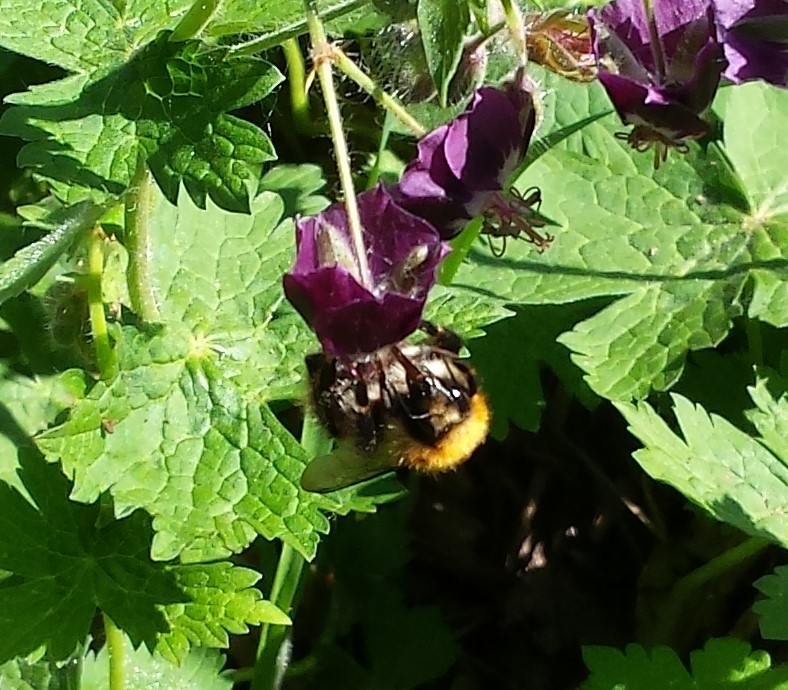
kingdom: Animalia
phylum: Arthropoda
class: Insecta
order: Hymenoptera
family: Apidae
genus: Bombus
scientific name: Bombus pascuorum
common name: Common carder bee
